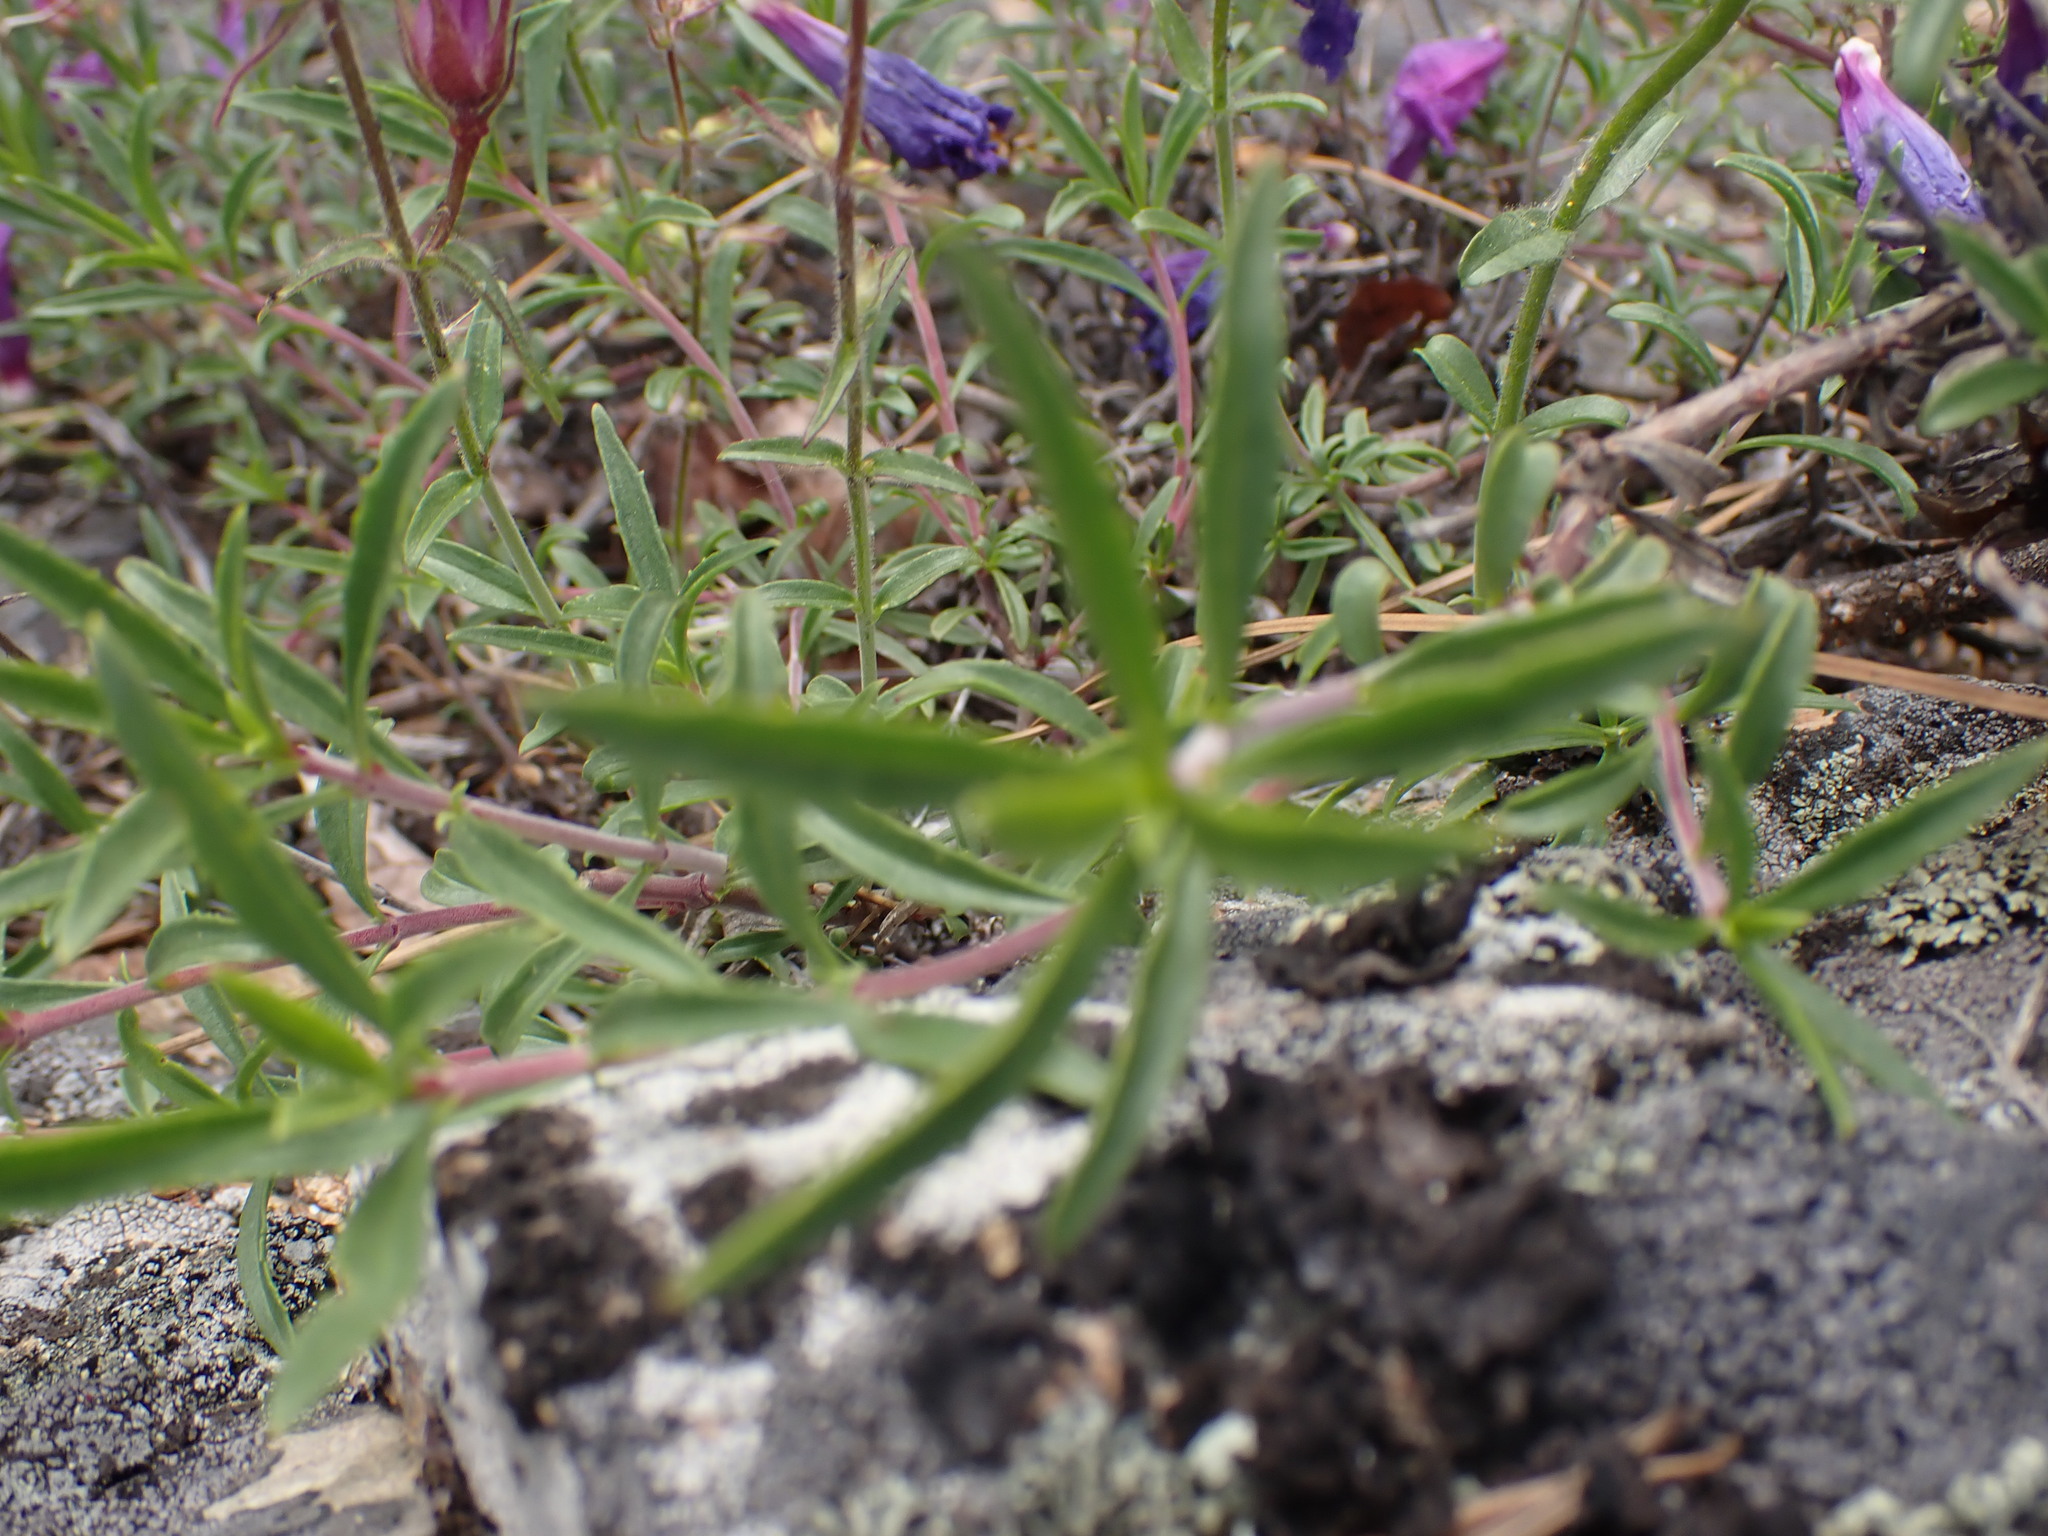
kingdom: Plantae
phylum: Tracheophyta
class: Magnoliopsida
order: Lamiales
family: Plantaginaceae
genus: Penstemon
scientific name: Penstemon fruticosus
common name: Bush penstemon
